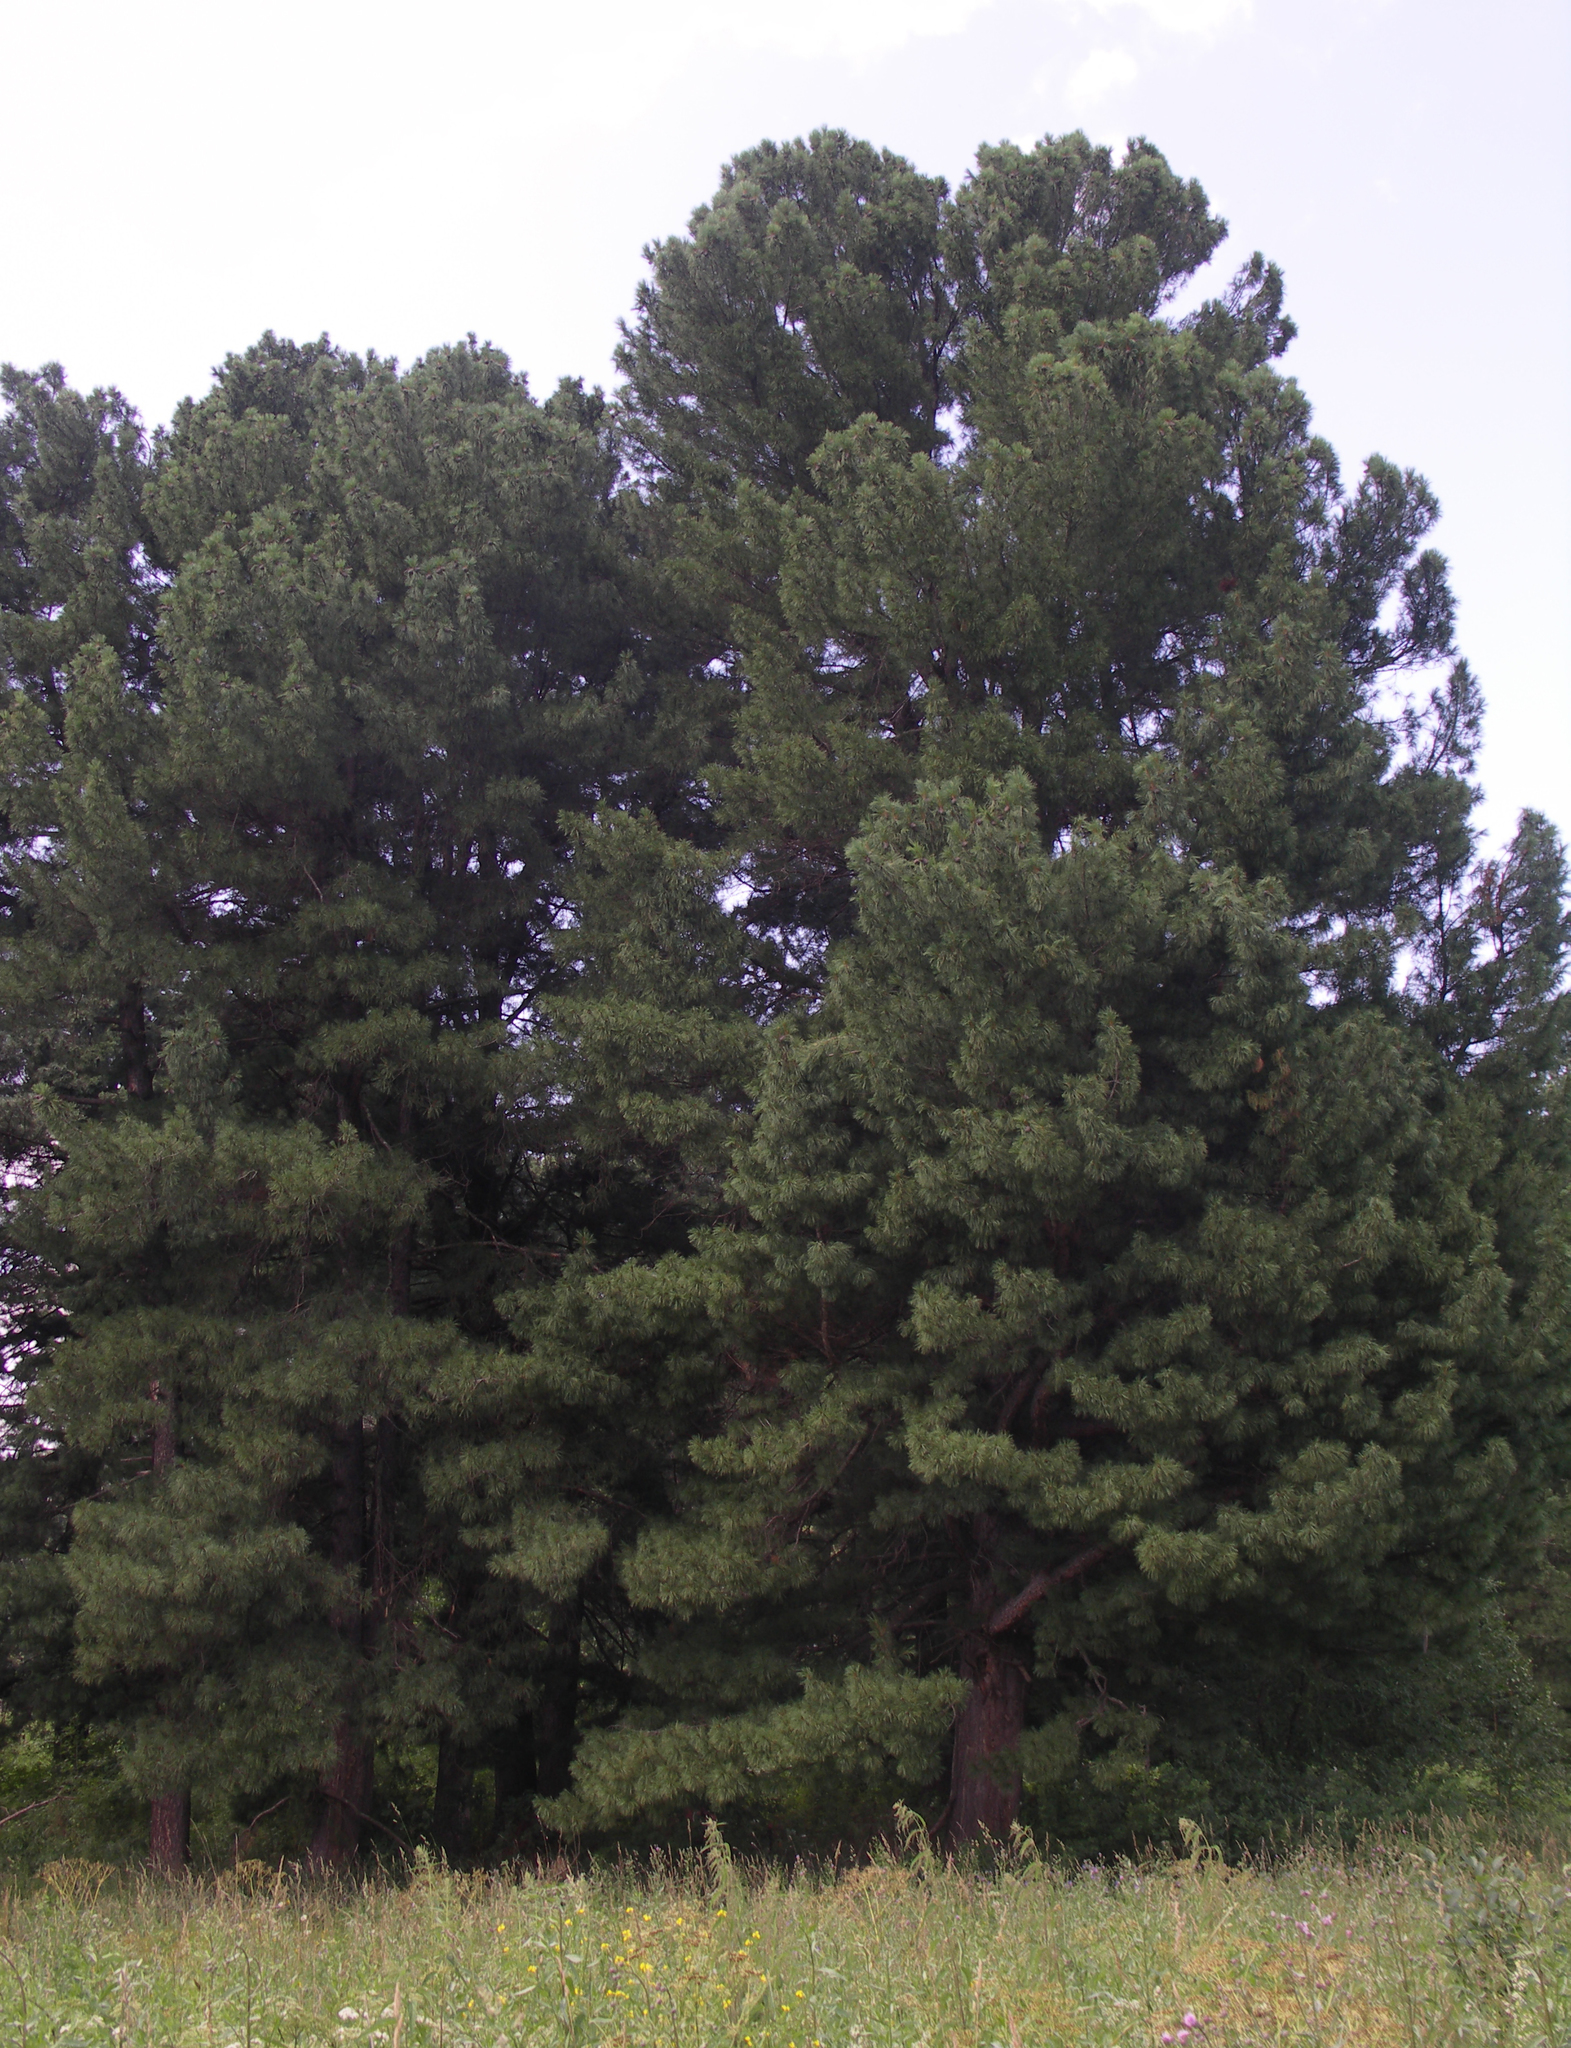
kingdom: Plantae
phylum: Tracheophyta
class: Pinopsida
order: Pinales
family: Pinaceae
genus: Pinus
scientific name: Pinus sibirica
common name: Siberian pine
